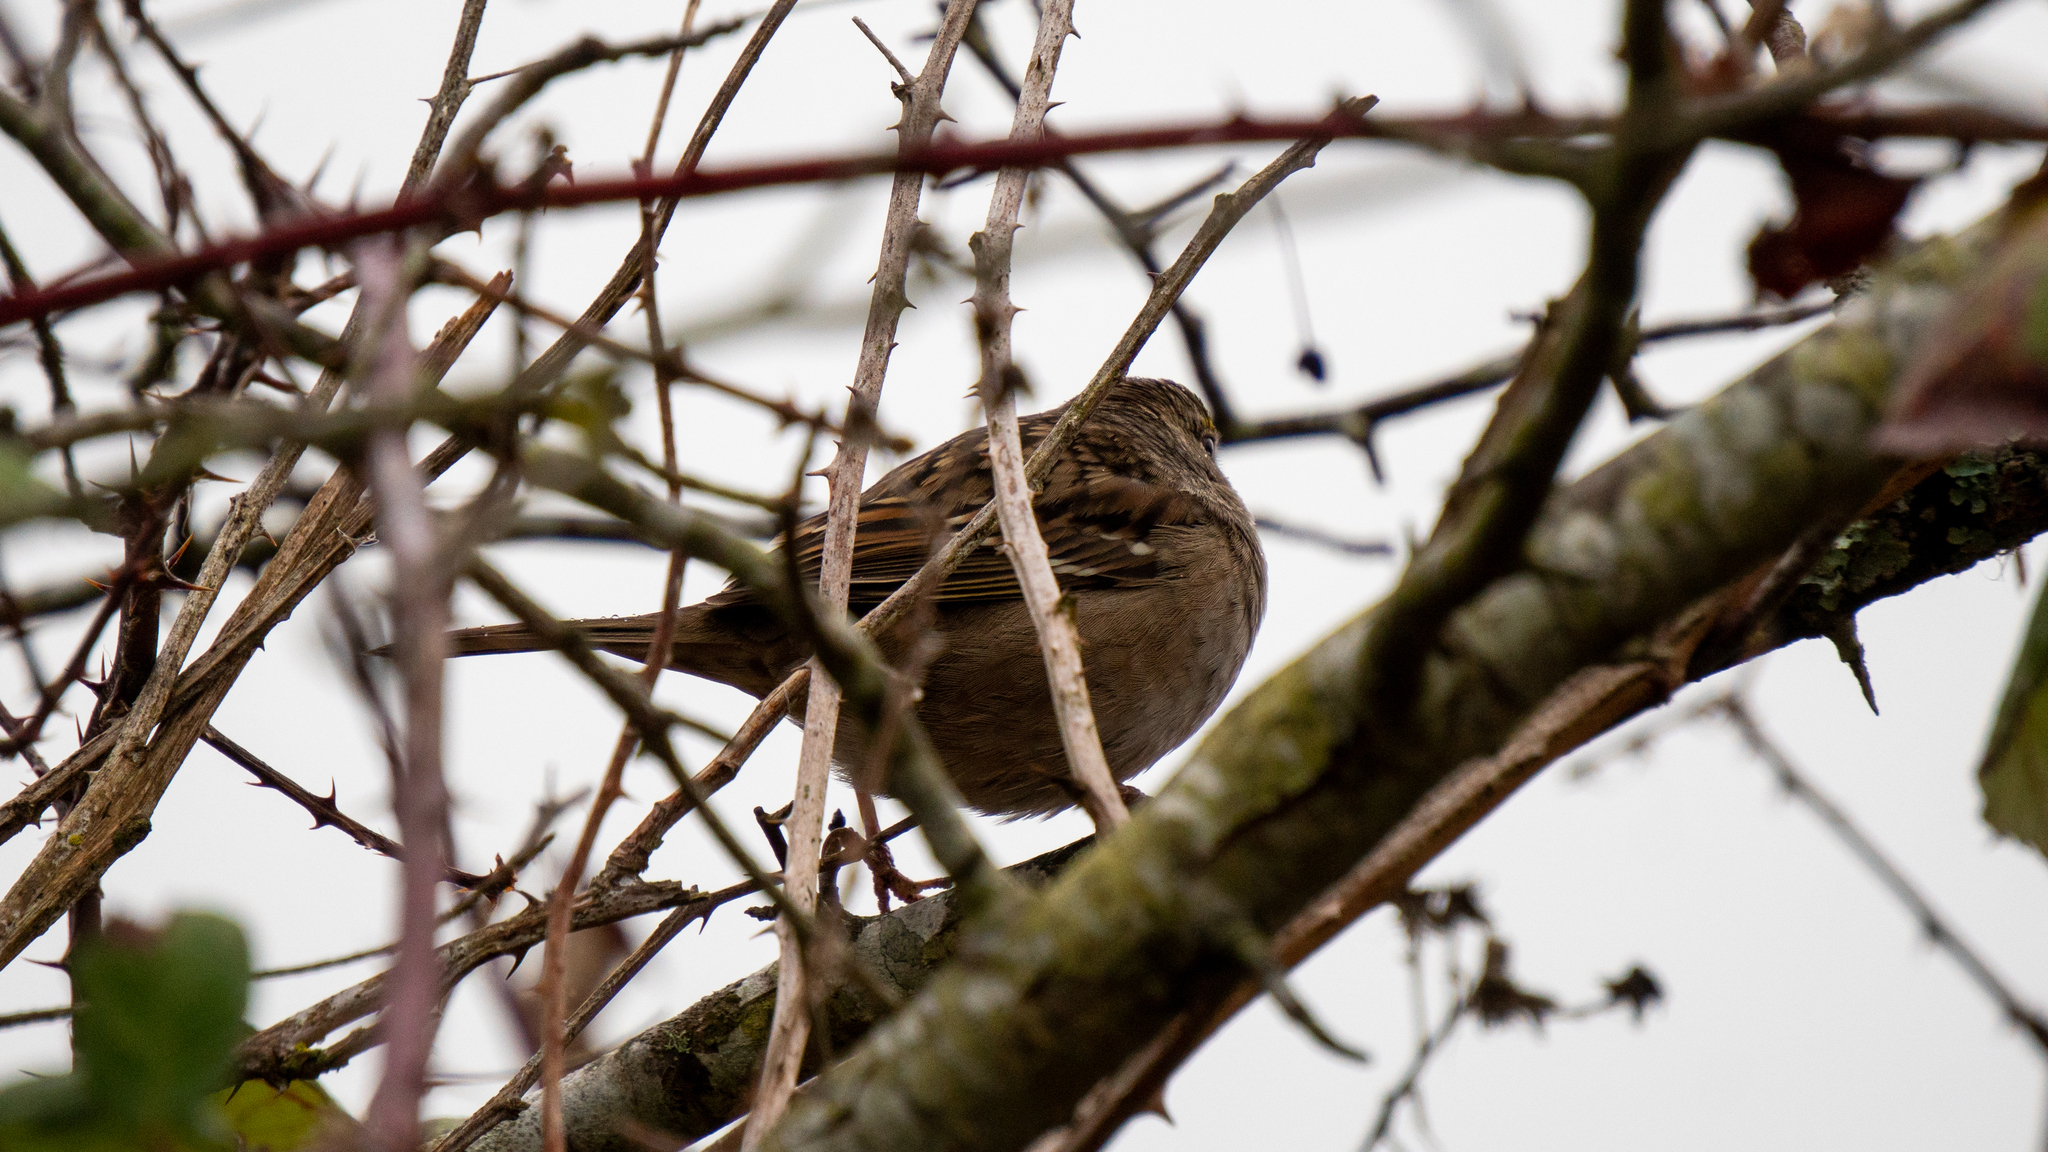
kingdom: Animalia
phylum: Chordata
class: Aves
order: Passeriformes
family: Passerellidae
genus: Zonotrichia
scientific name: Zonotrichia atricapilla
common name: Golden-crowned sparrow
